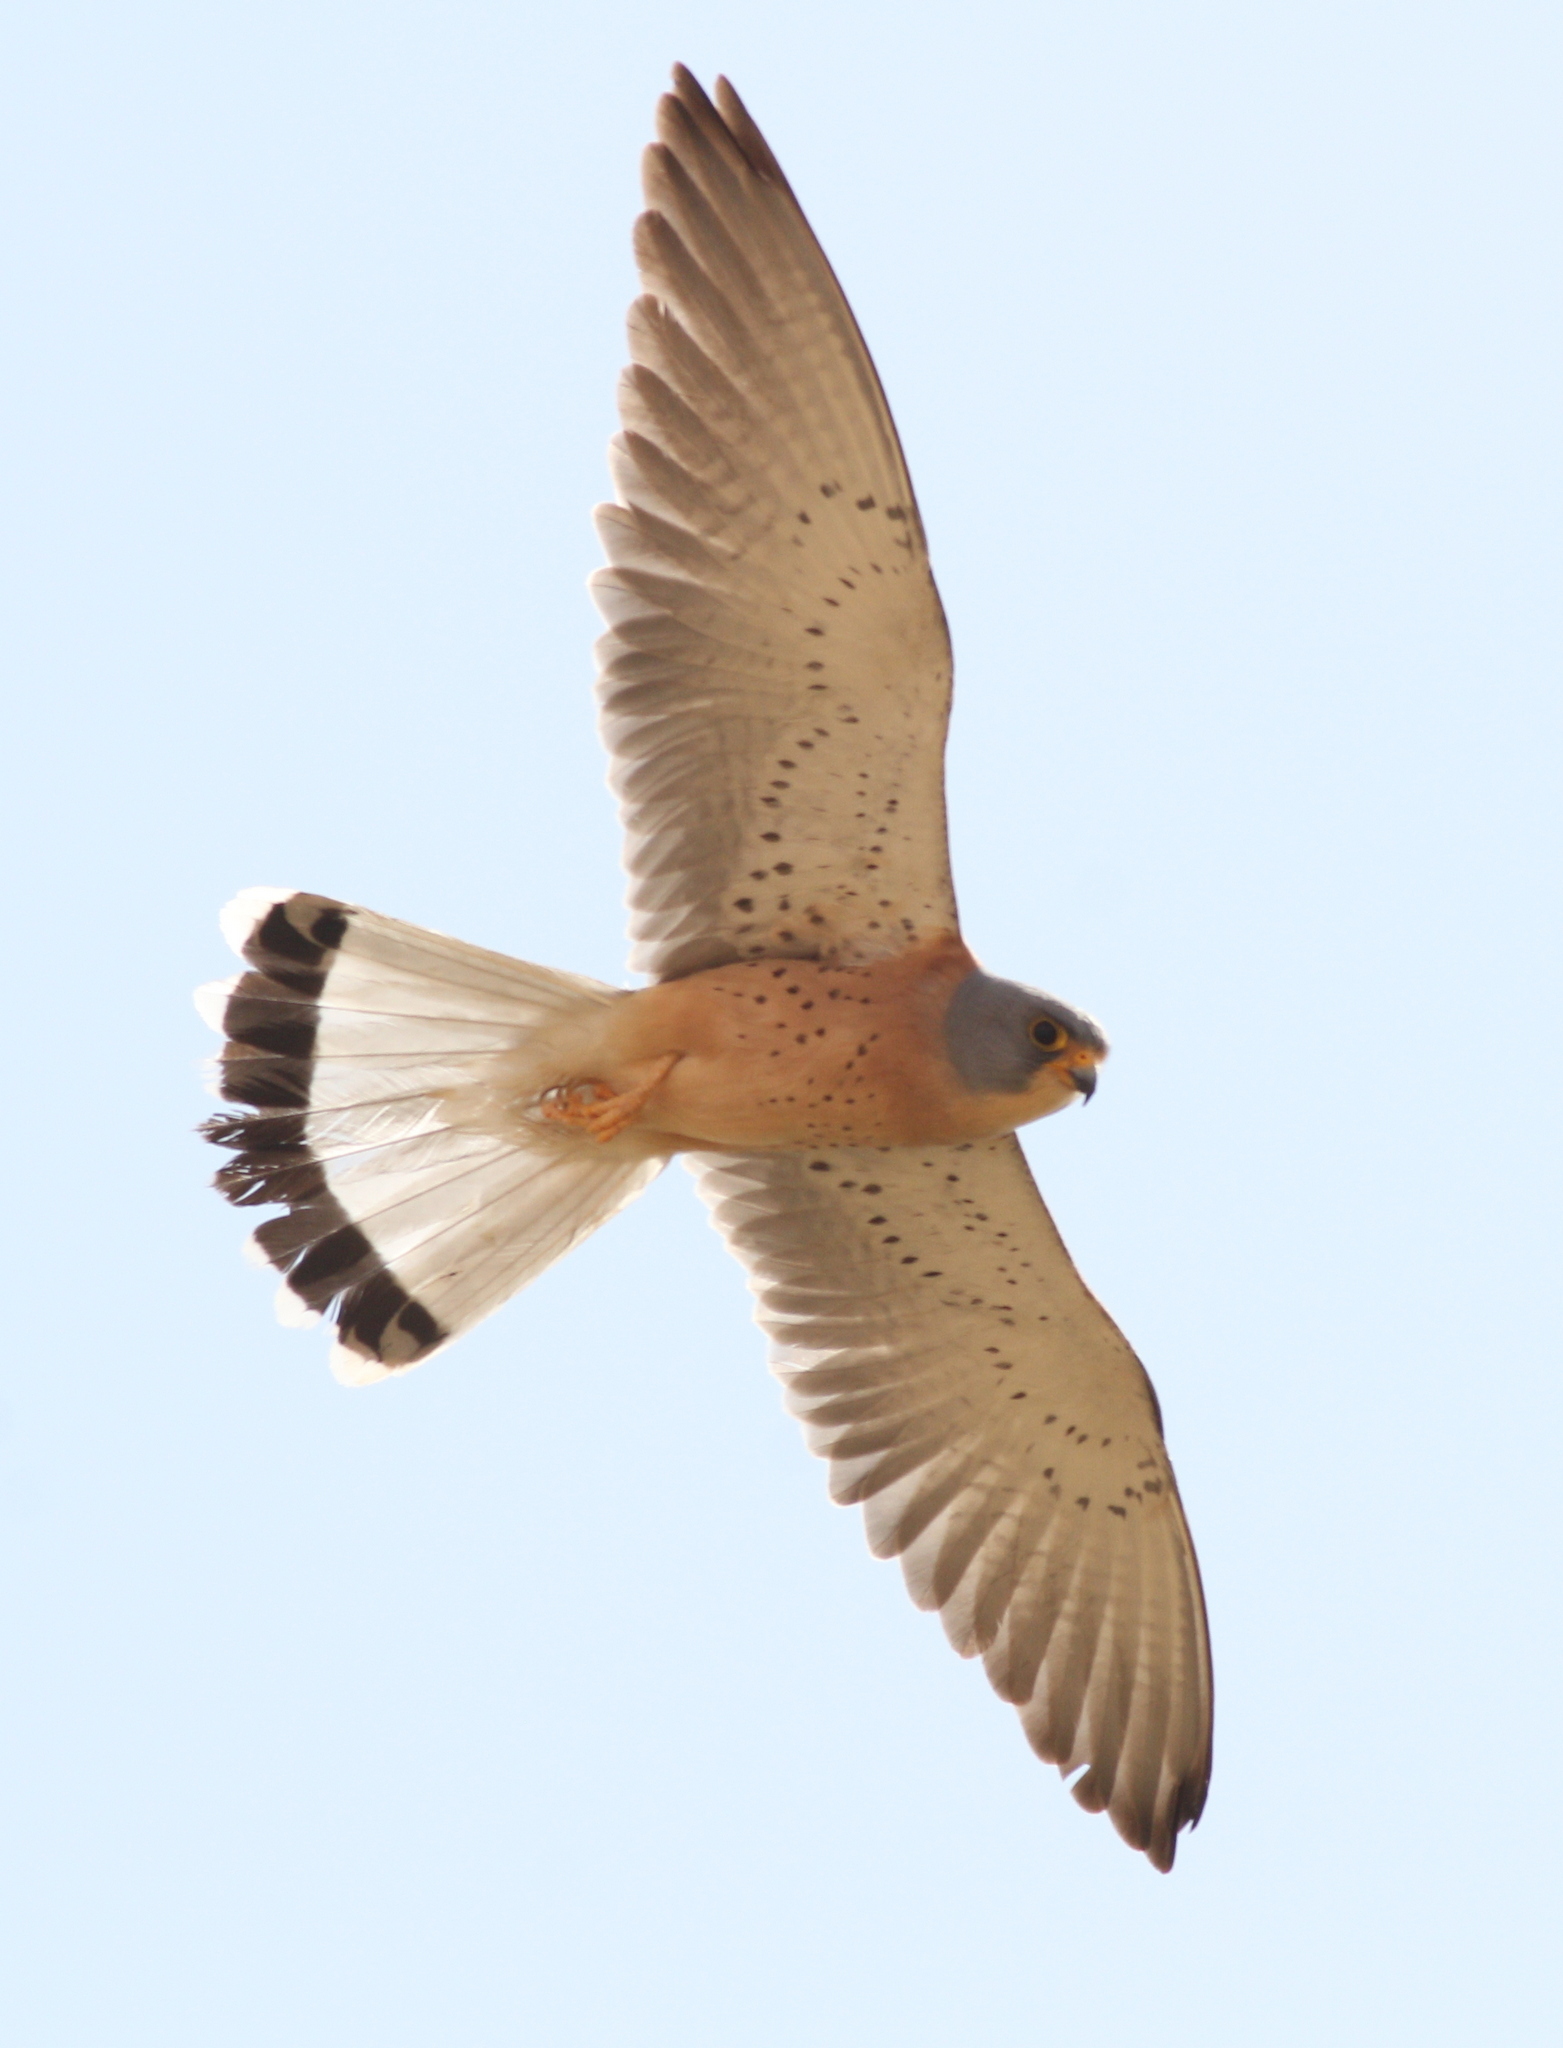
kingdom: Animalia
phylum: Chordata
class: Aves
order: Falconiformes
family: Falconidae
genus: Falco
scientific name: Falco naumanni
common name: Lesser kestrel
